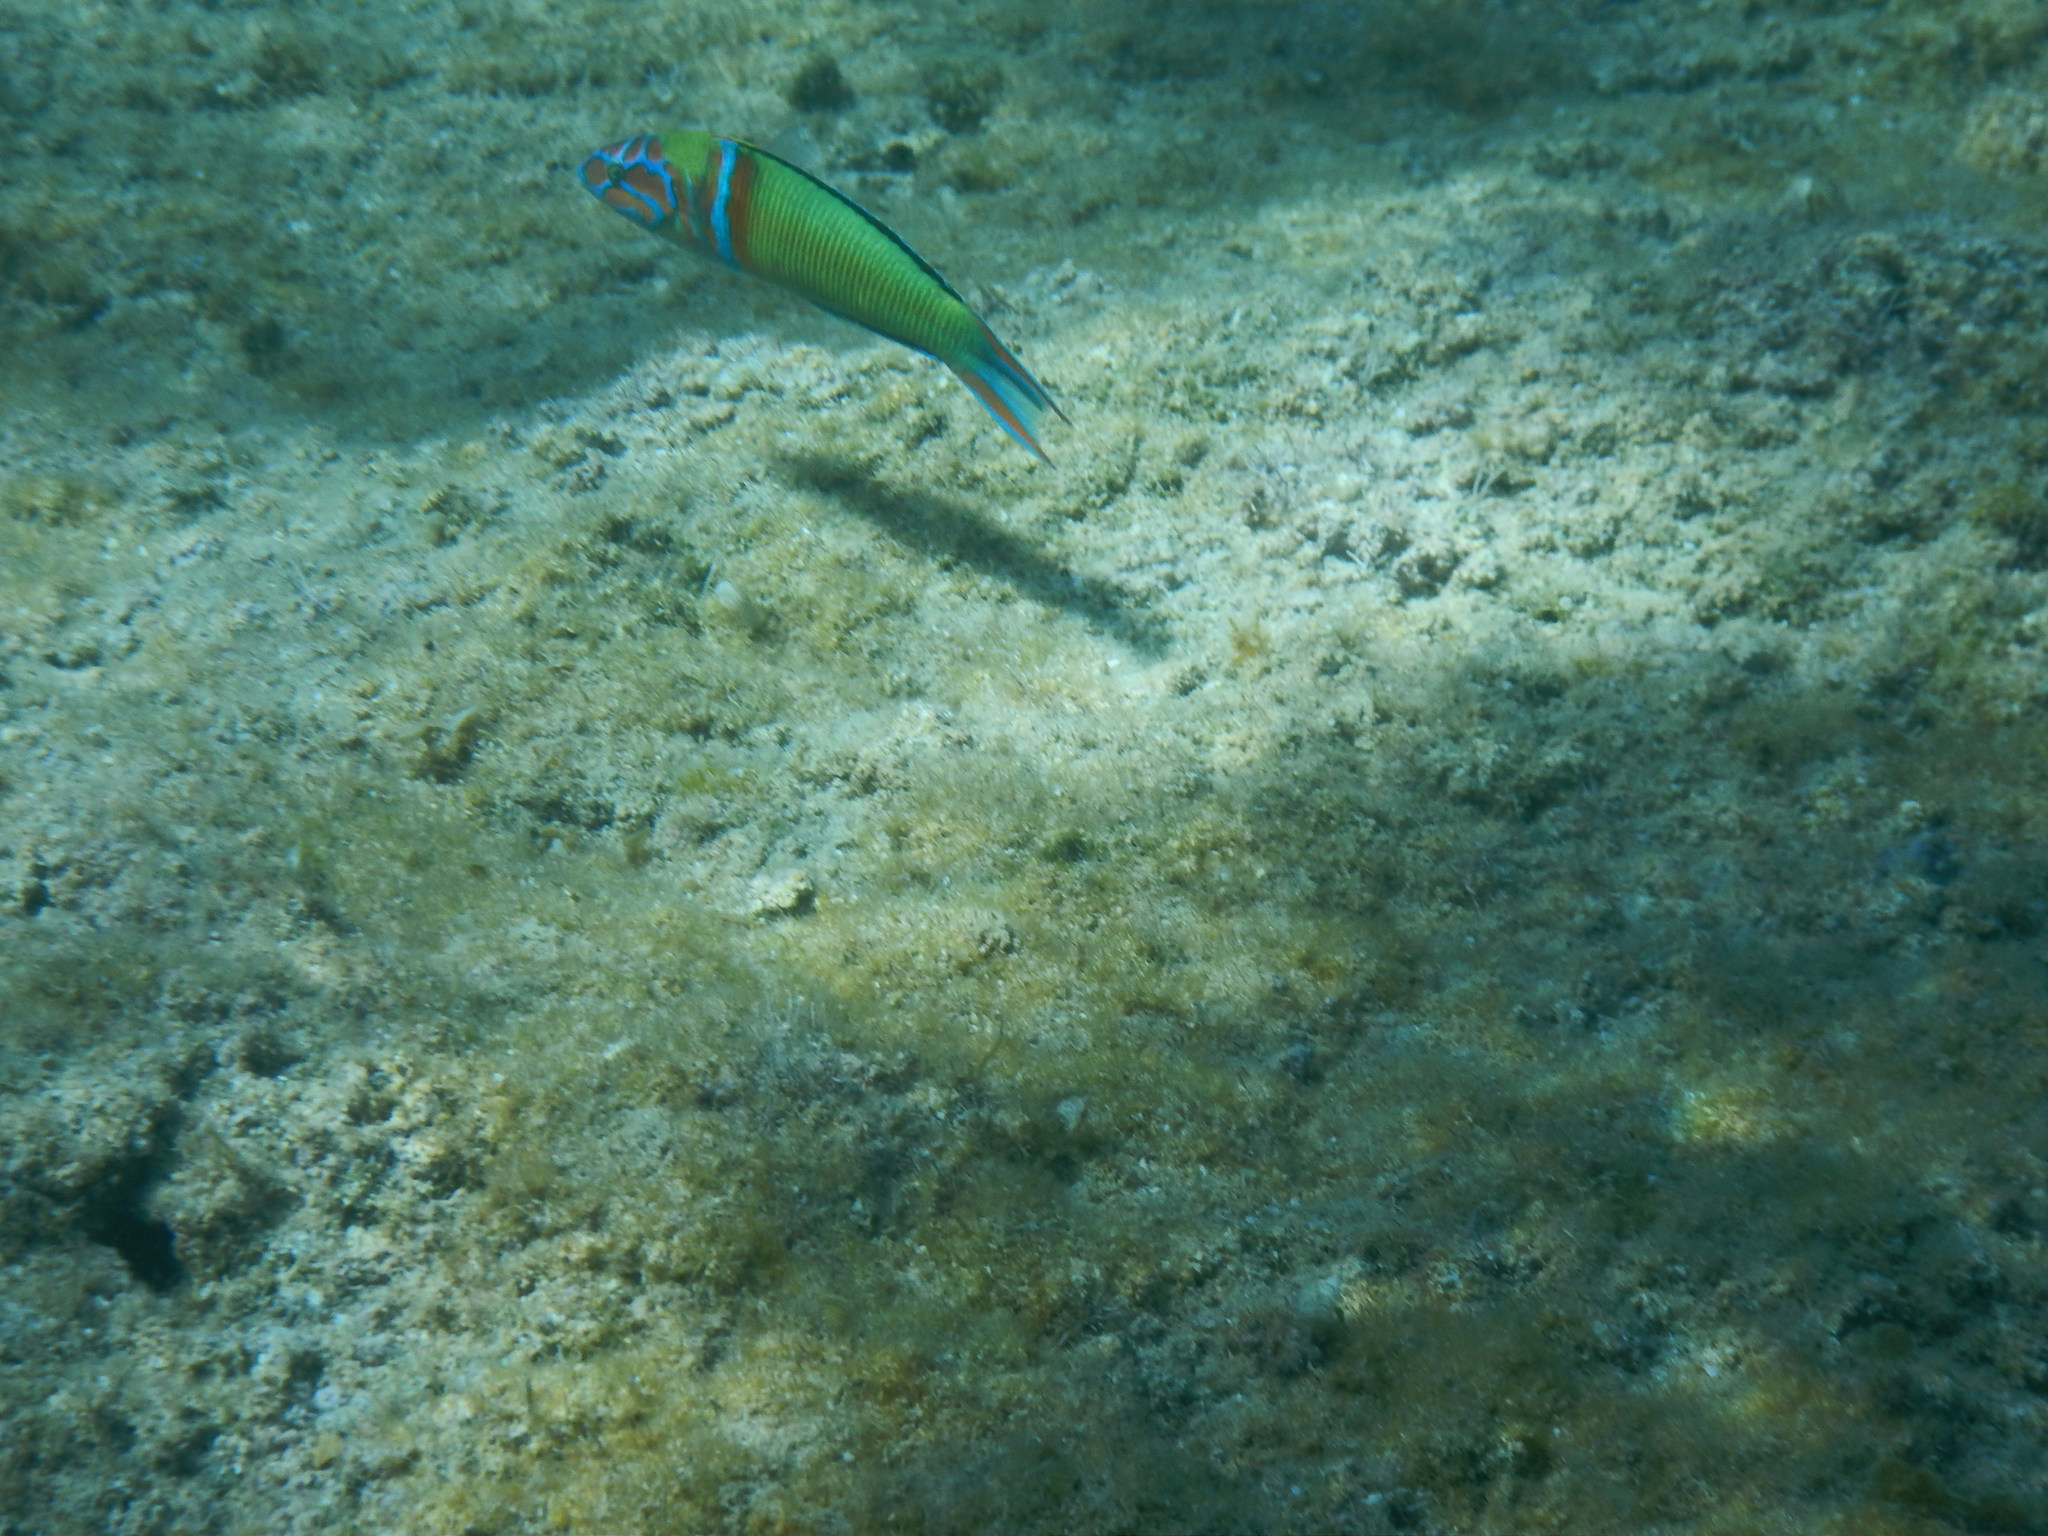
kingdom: Animalia
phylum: Chordata
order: Perciformes
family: Labridae
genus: Thalassoma
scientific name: Thalassoma pavo
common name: Ornate wrasse
